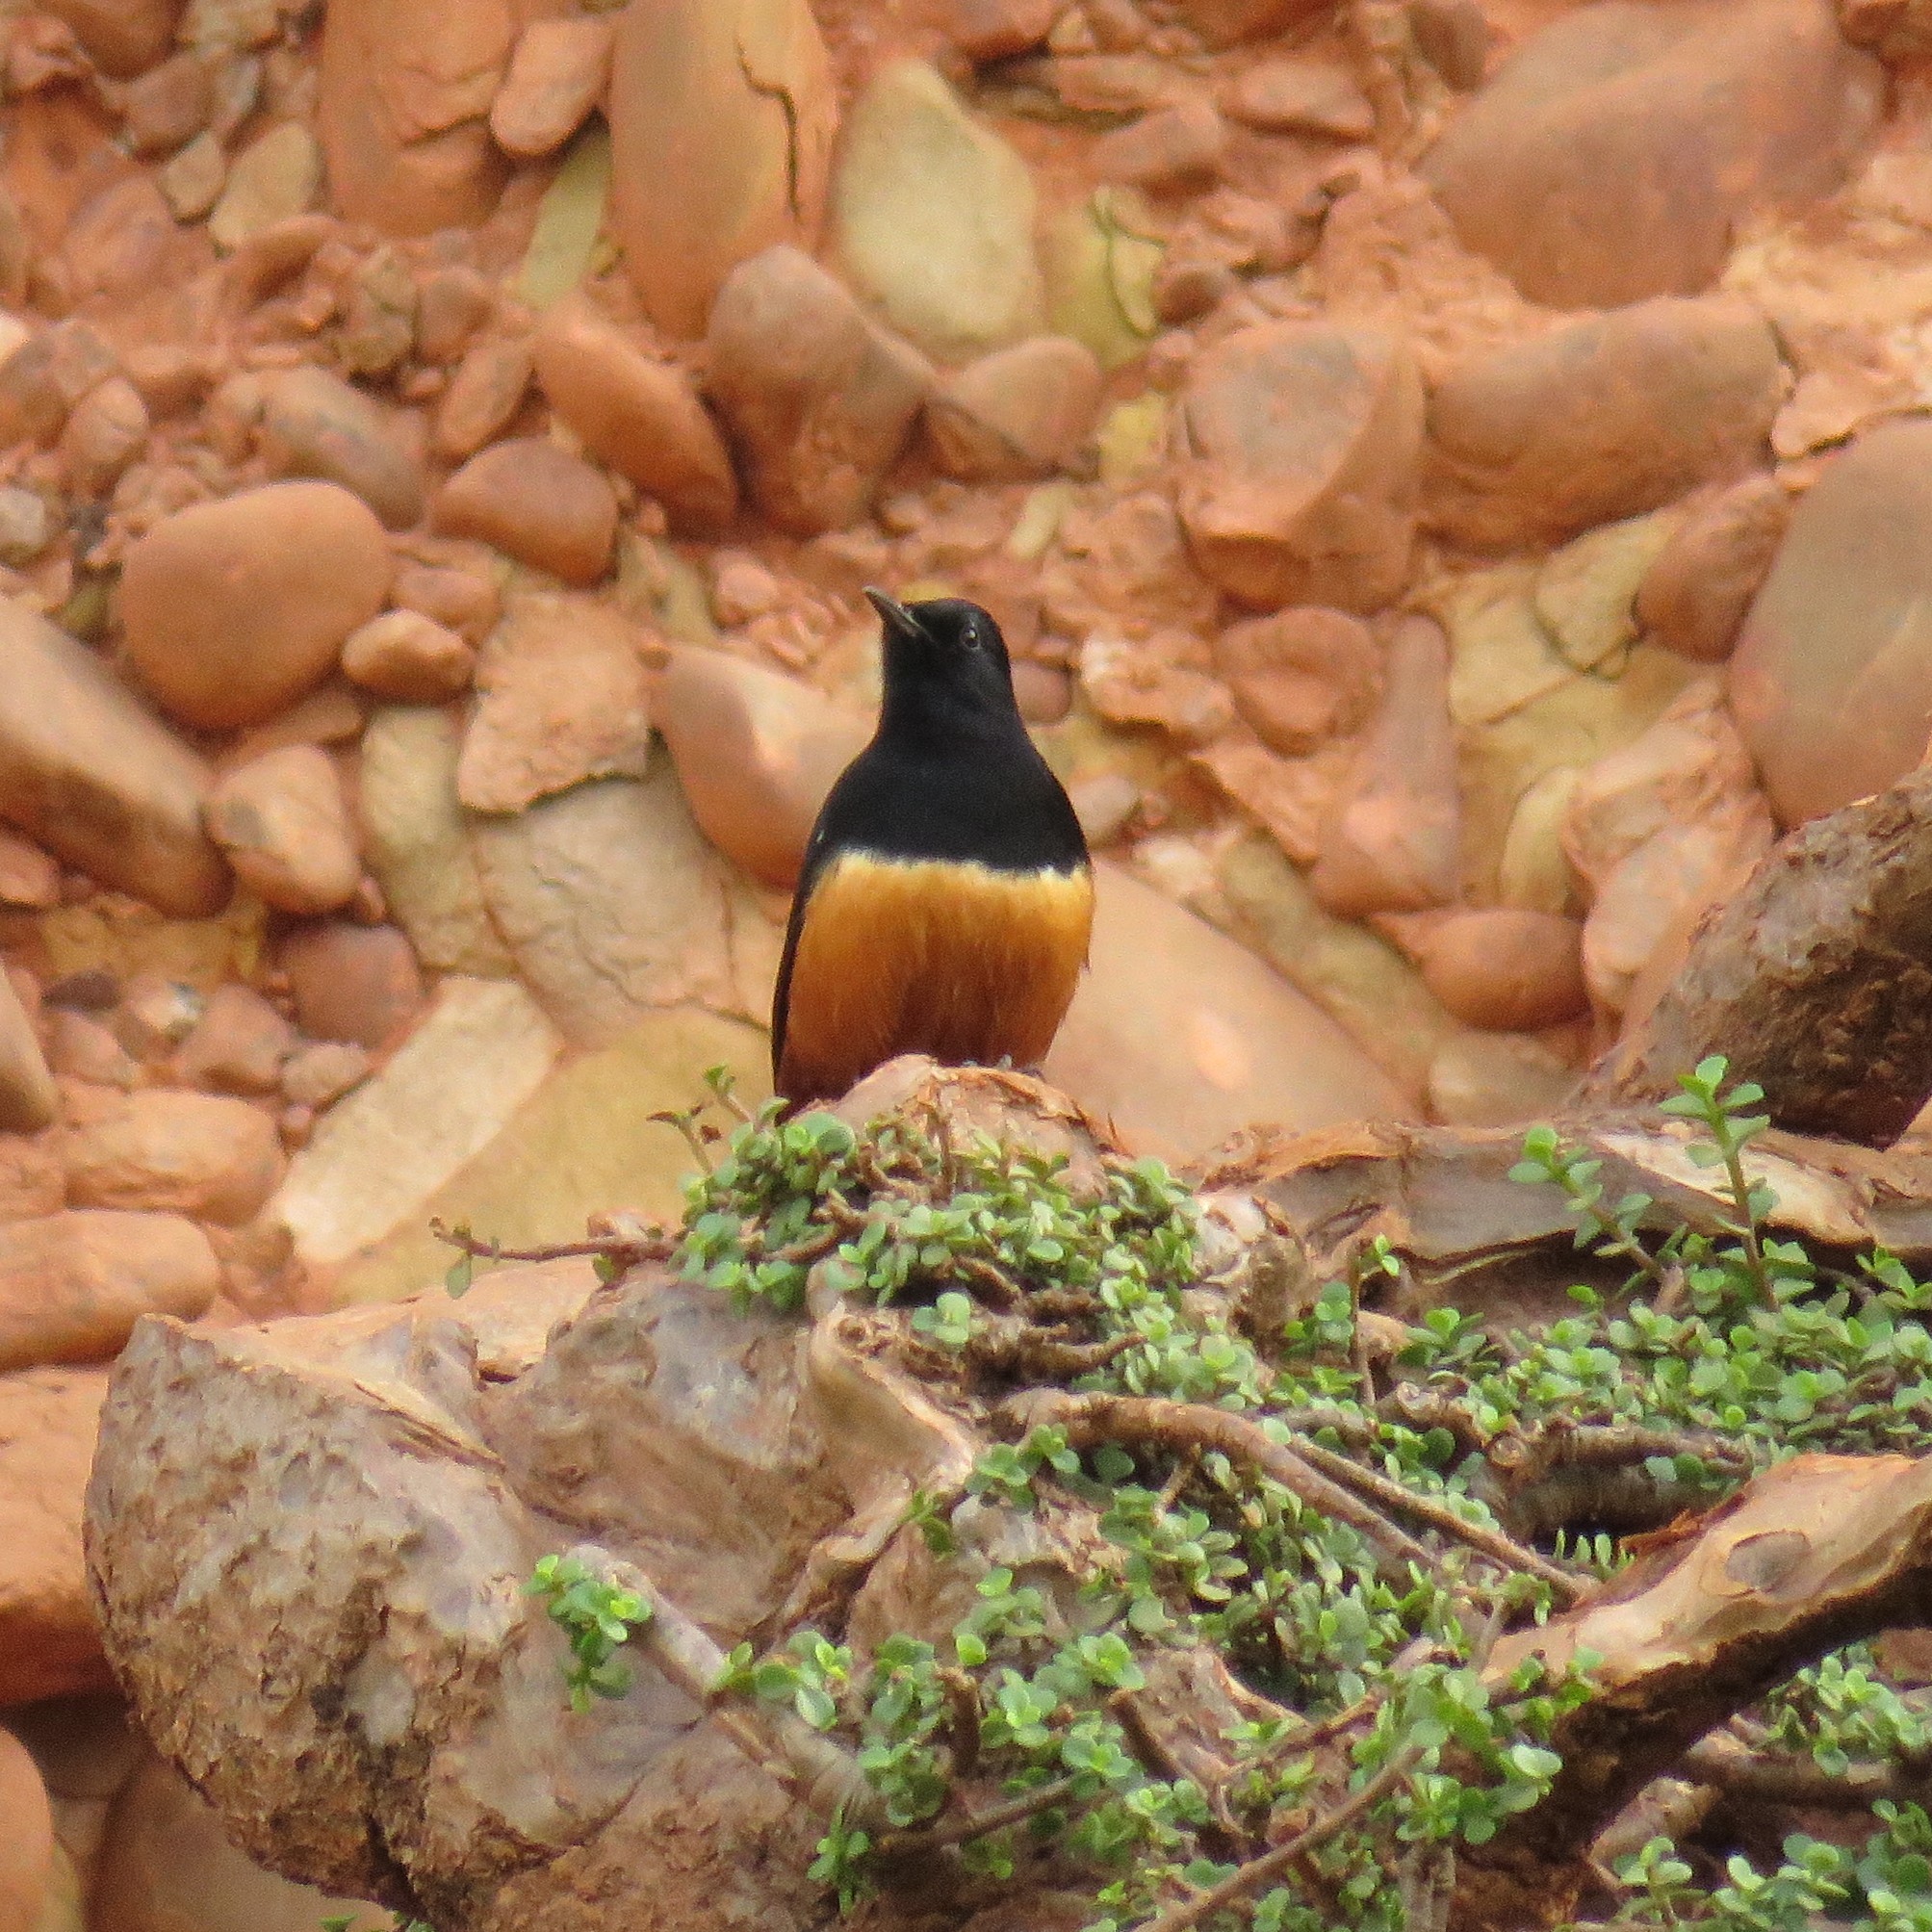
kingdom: Animalia
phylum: Chordata
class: Aves
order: Passeriformes
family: Muscicapidae
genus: Thamnolaea
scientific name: Thamnolaea cinnamomeiventris
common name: Mocking cliff chat
